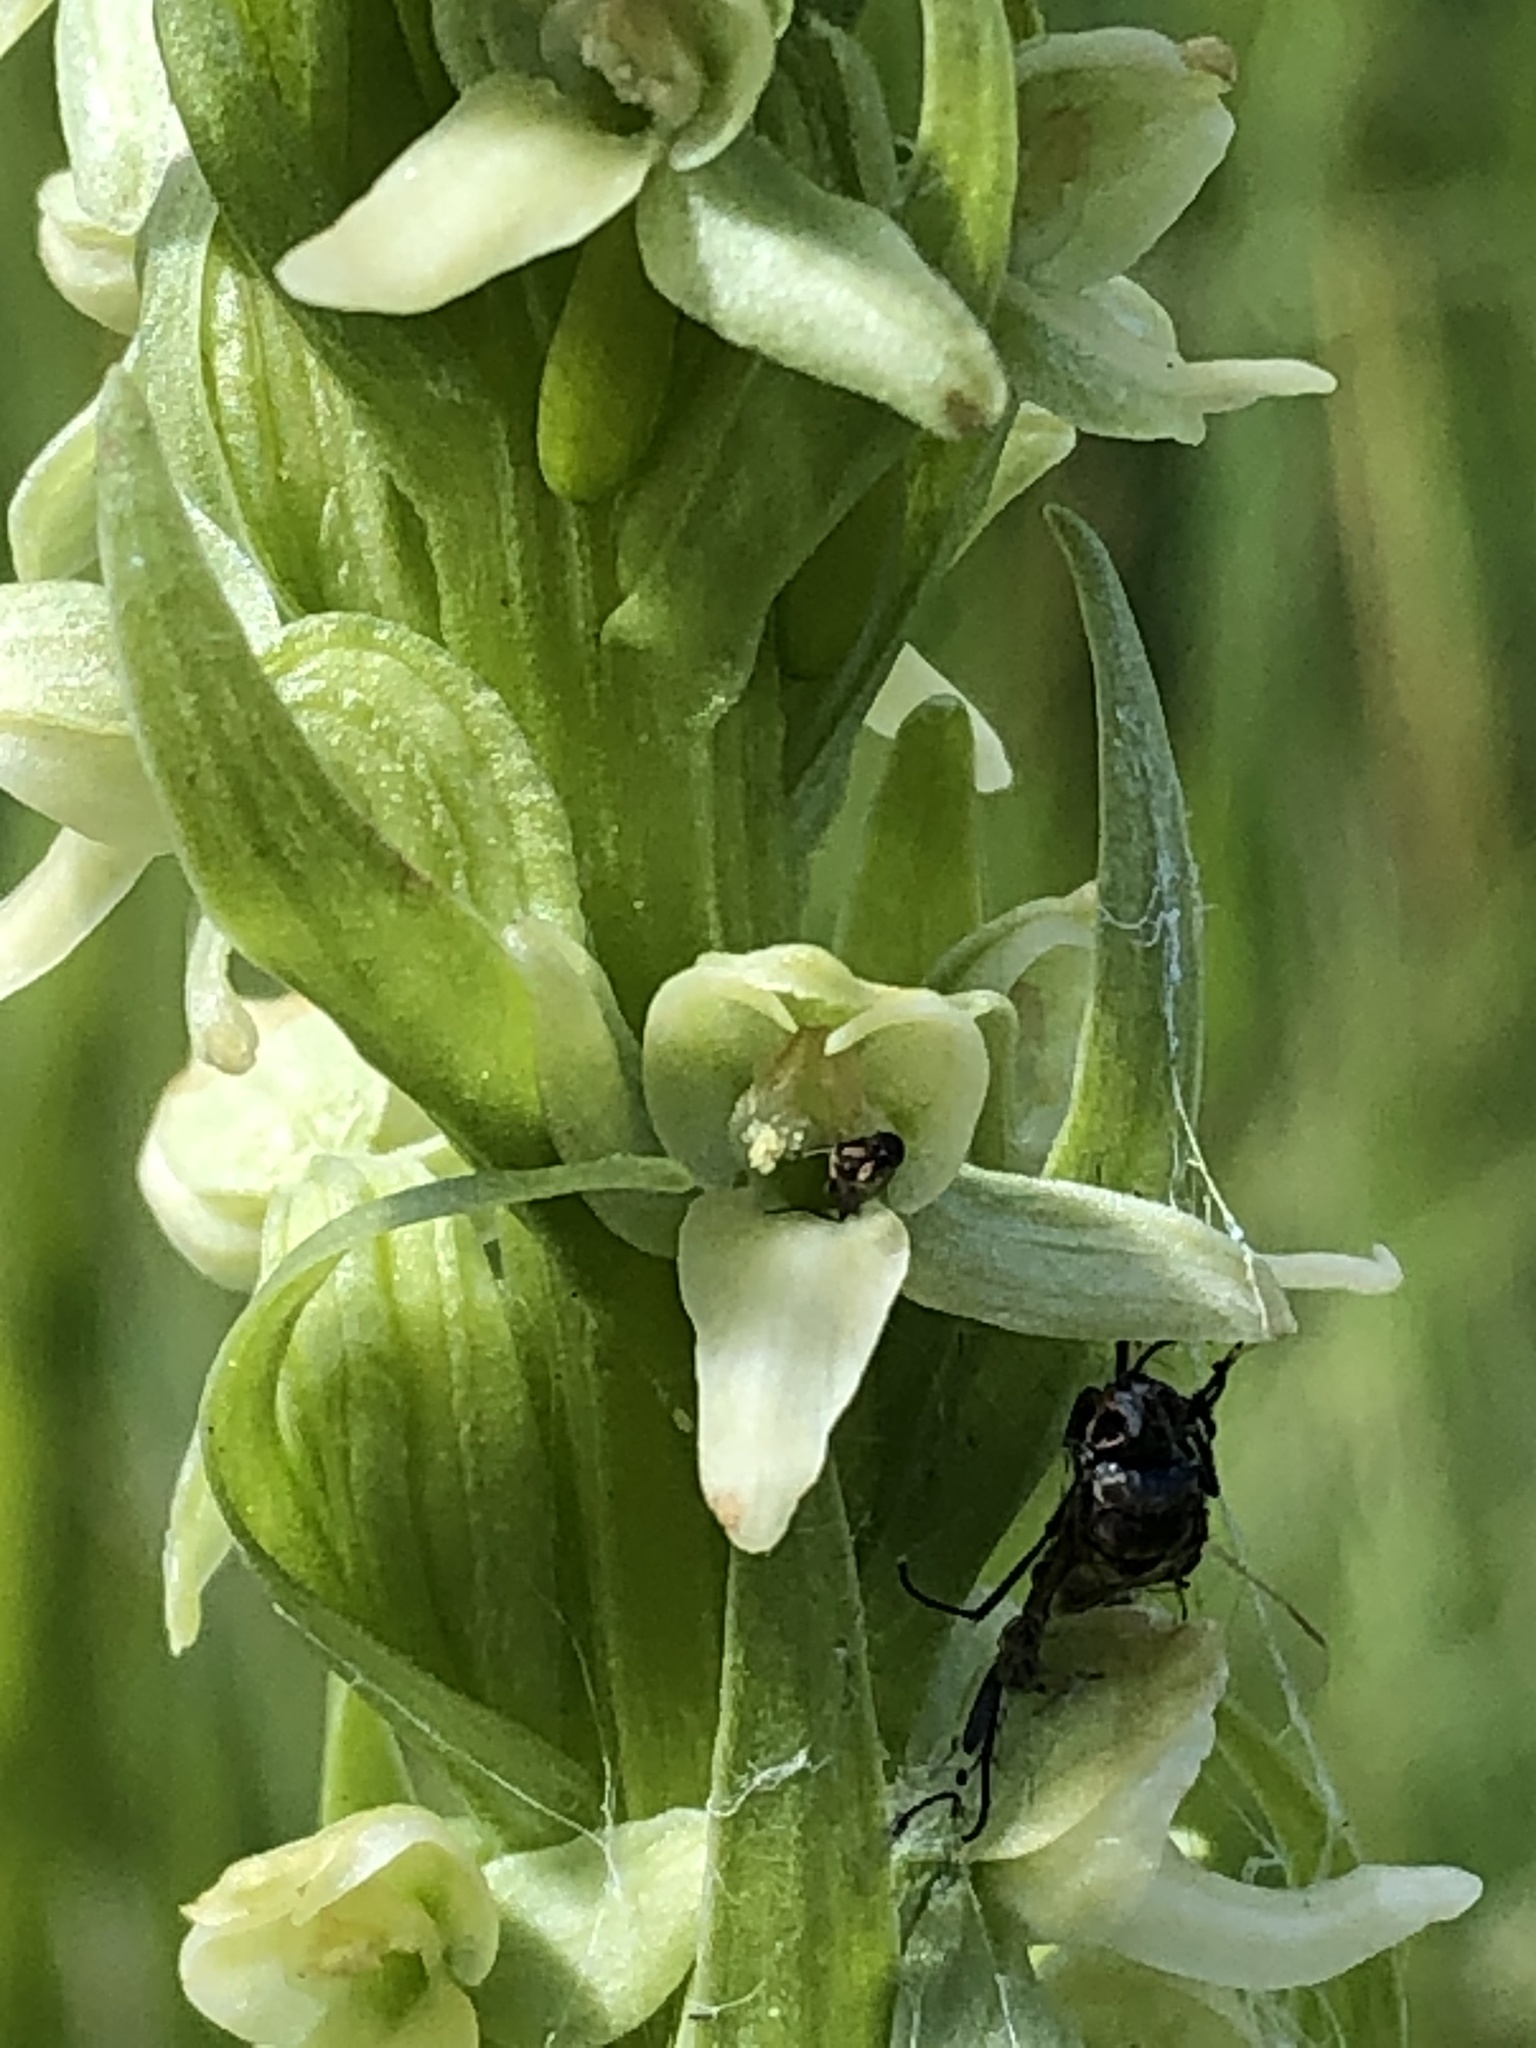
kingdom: Plantae
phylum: Tracheophyta
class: Liliopsida
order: Asparagales
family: Orchidaceae
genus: Platanthera
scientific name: Platanthera huronensis
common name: Fragrant green orchid
